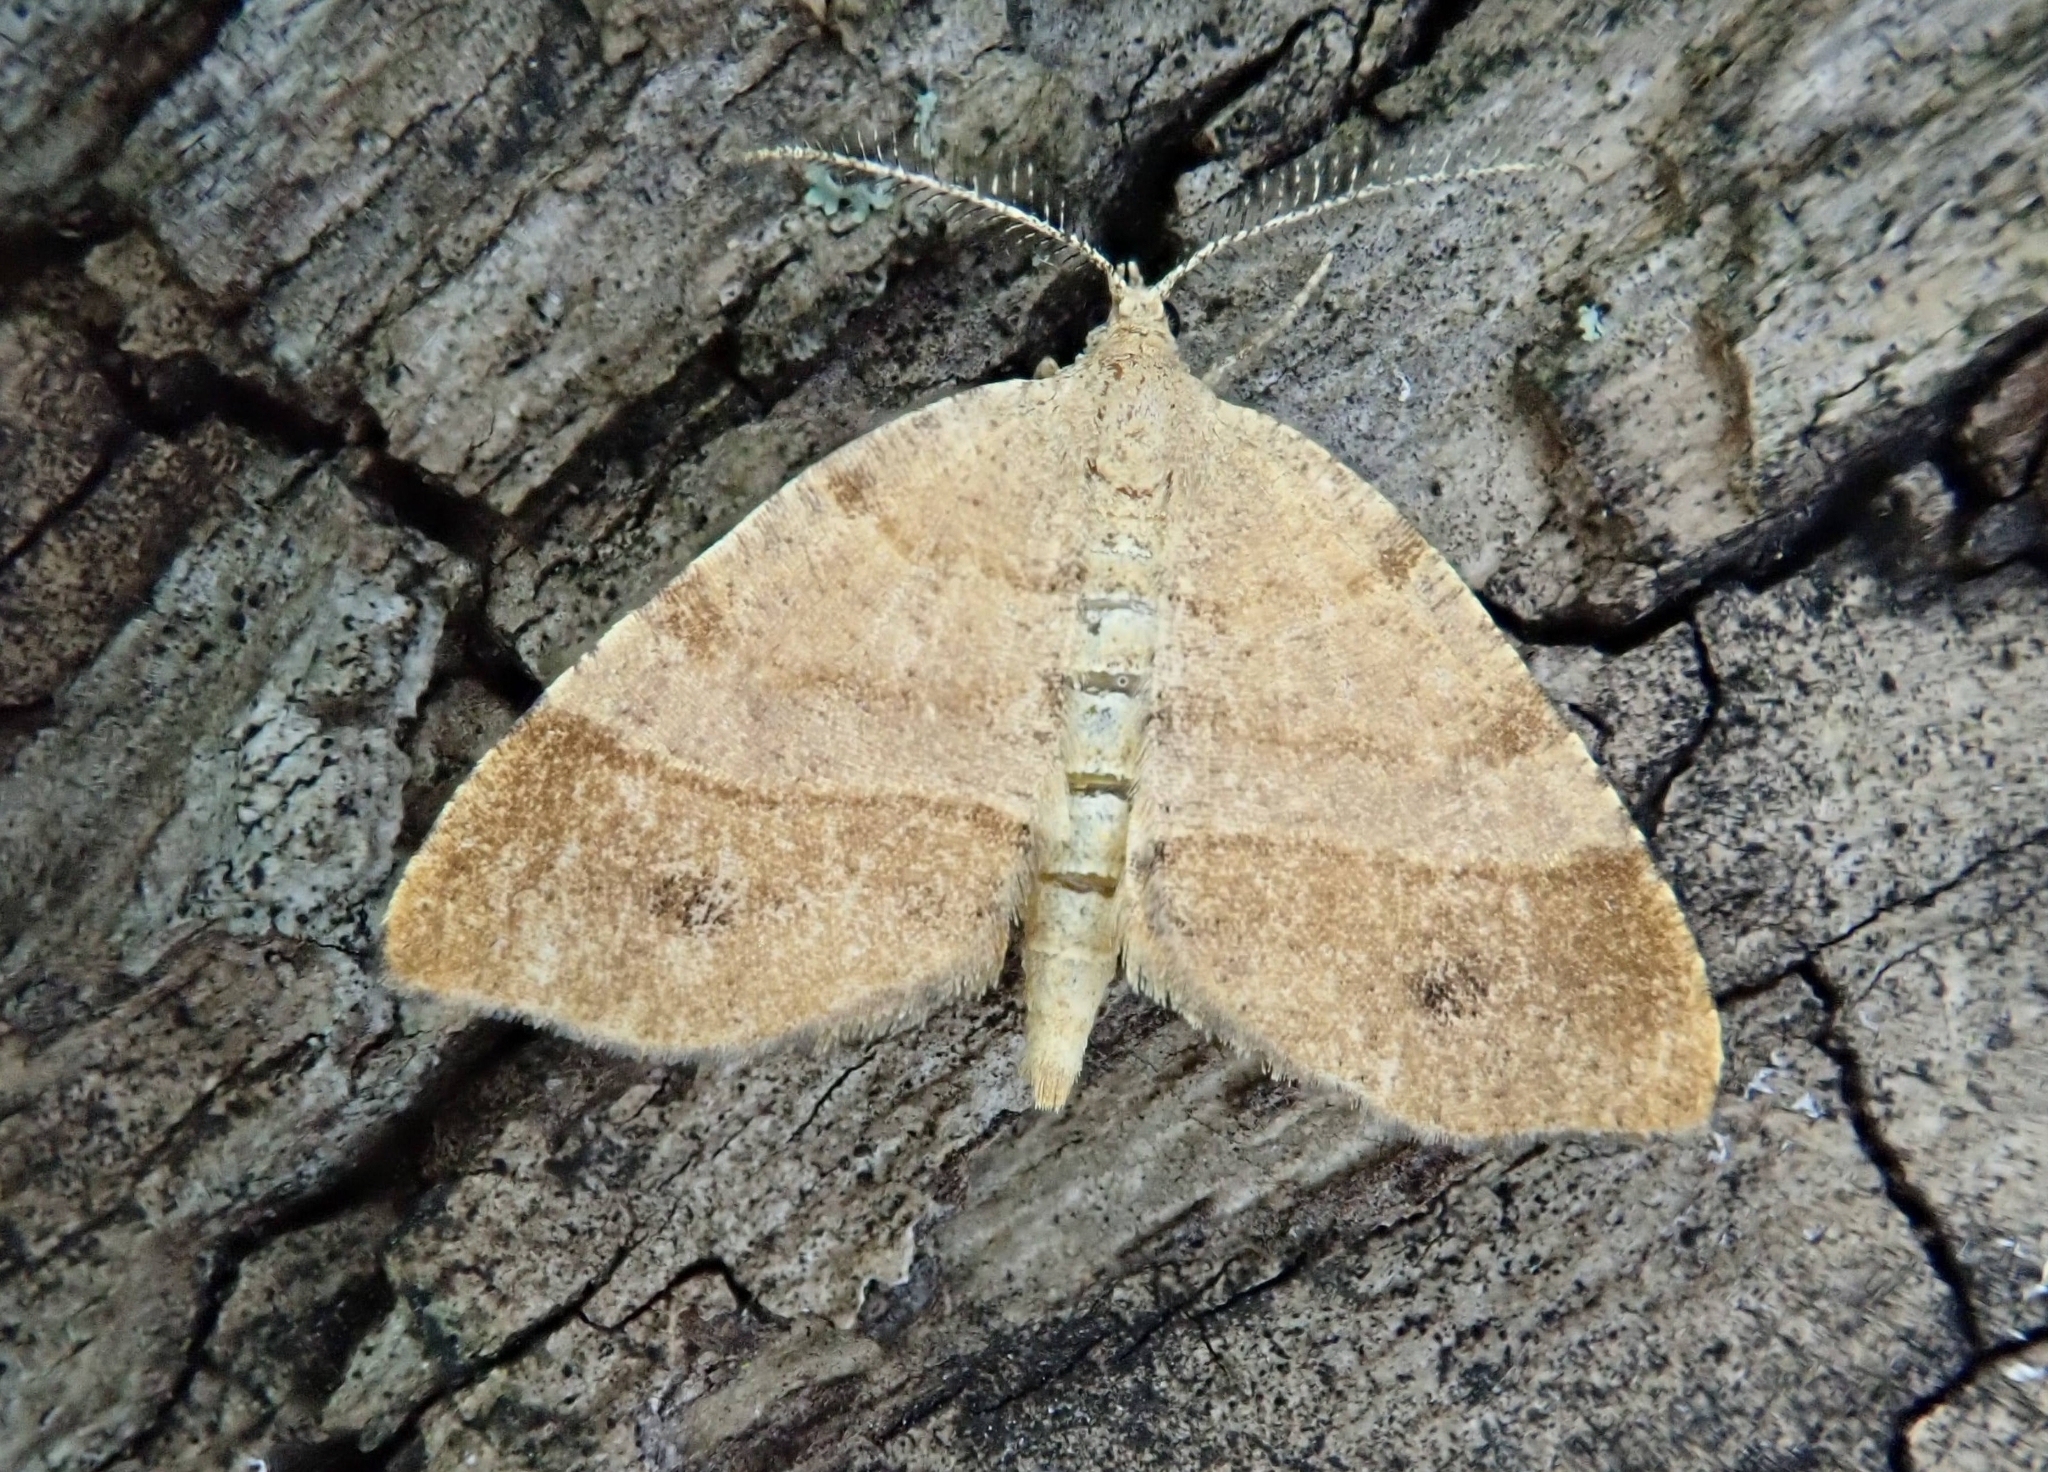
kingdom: Animalia
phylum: Arthropoda
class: Insecta
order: Lepidoptera
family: Geometridae
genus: Mellilla
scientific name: Mellilla xanthometata
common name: Orange wing moth
